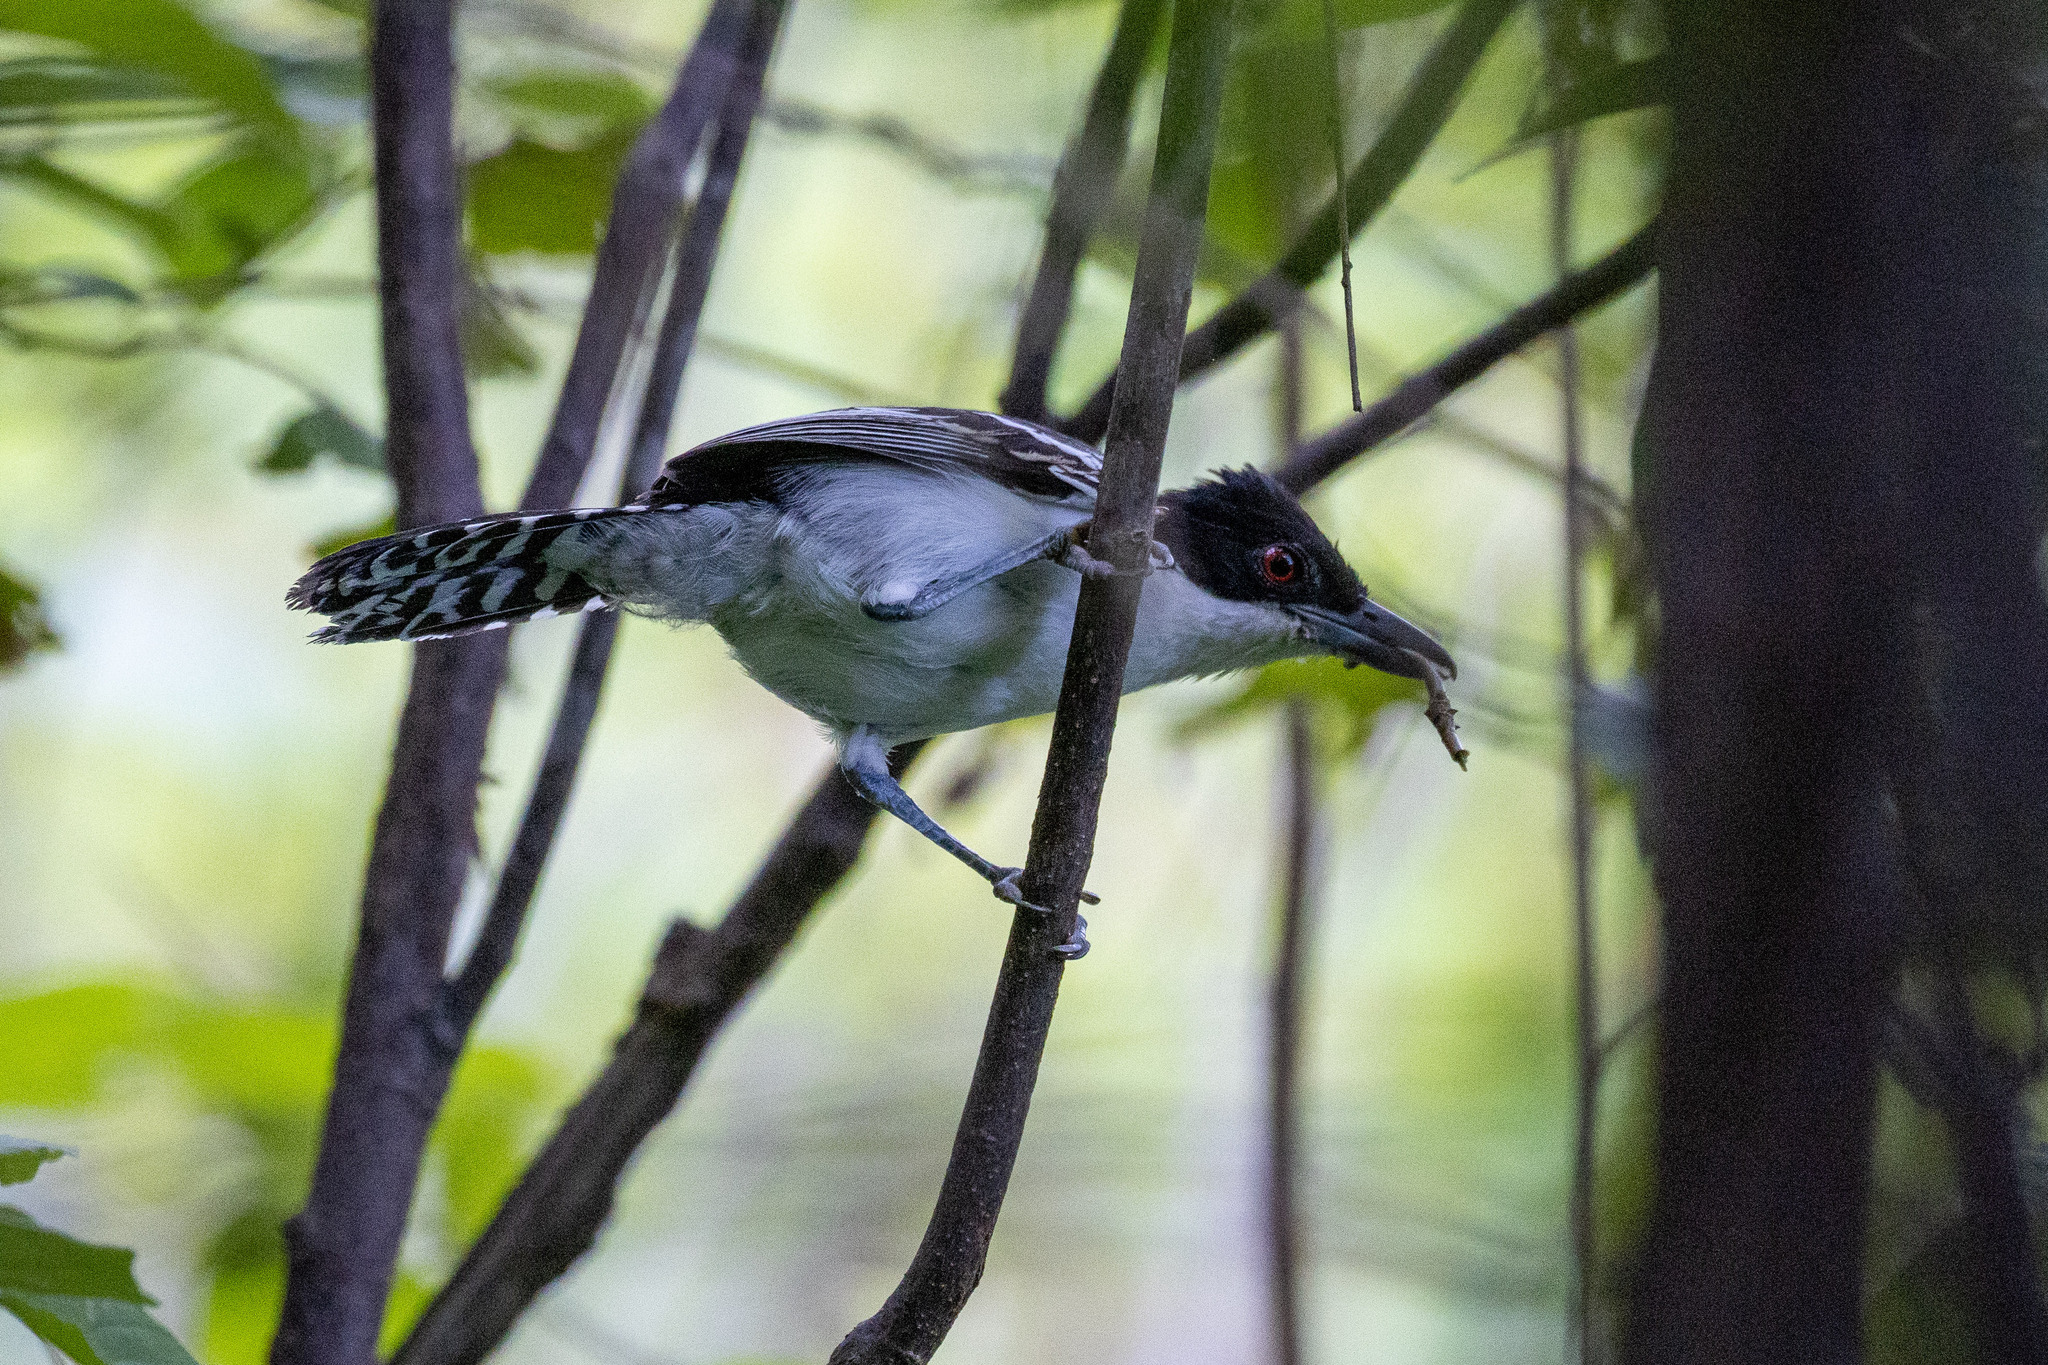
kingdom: Animalia
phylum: Chordata
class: Aves
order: Passeriformes
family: Thamnophilidae
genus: Taraba
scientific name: Taraba major
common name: Great antshrike
